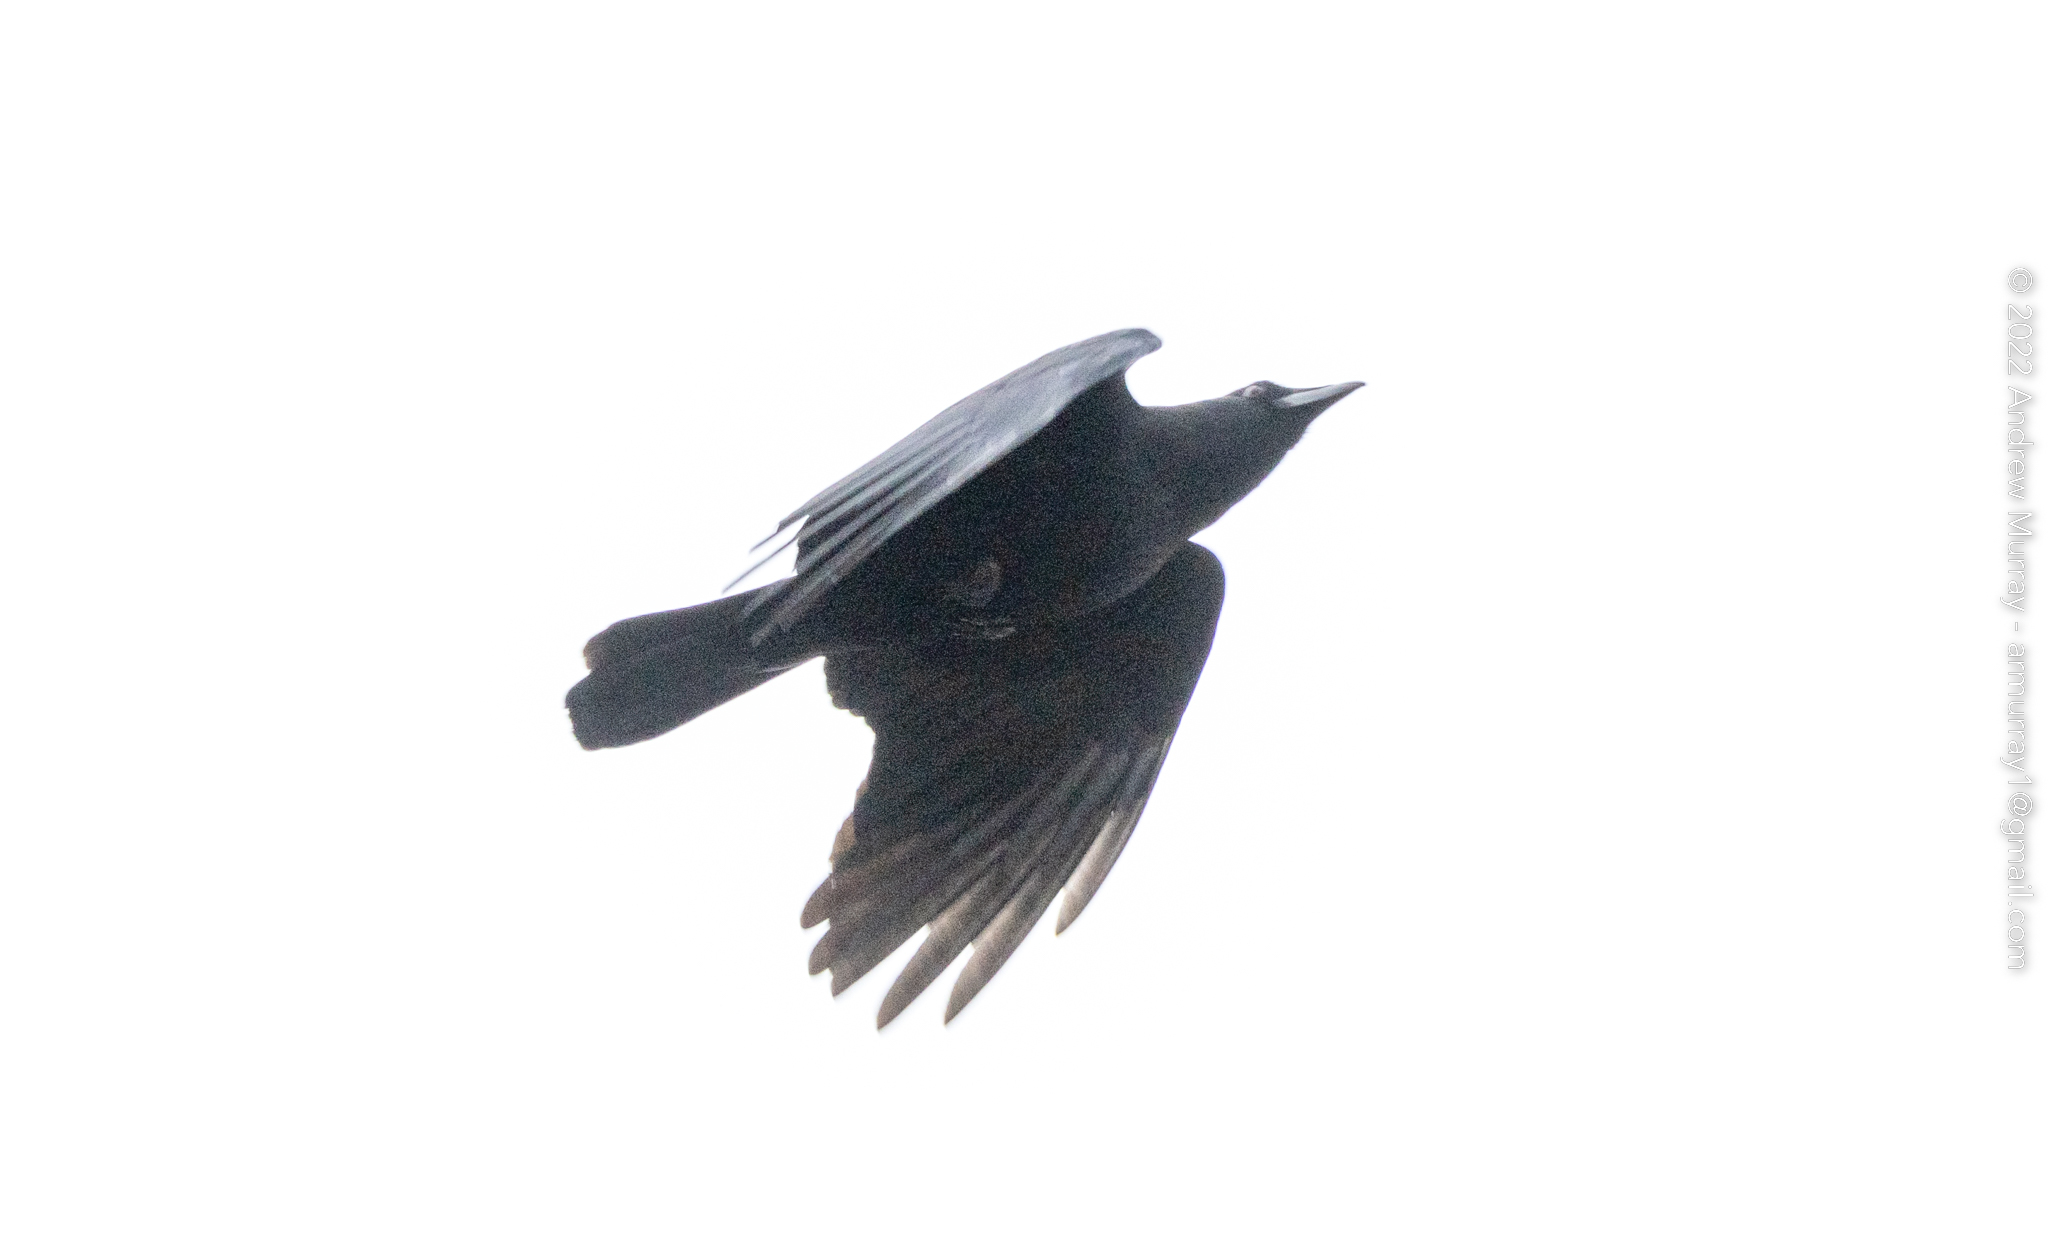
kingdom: Animalia
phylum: Chordata
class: Aves
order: Passeriformes
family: Corvidae
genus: Corvus
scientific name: Corvus brachyrhynchos
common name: American crow
